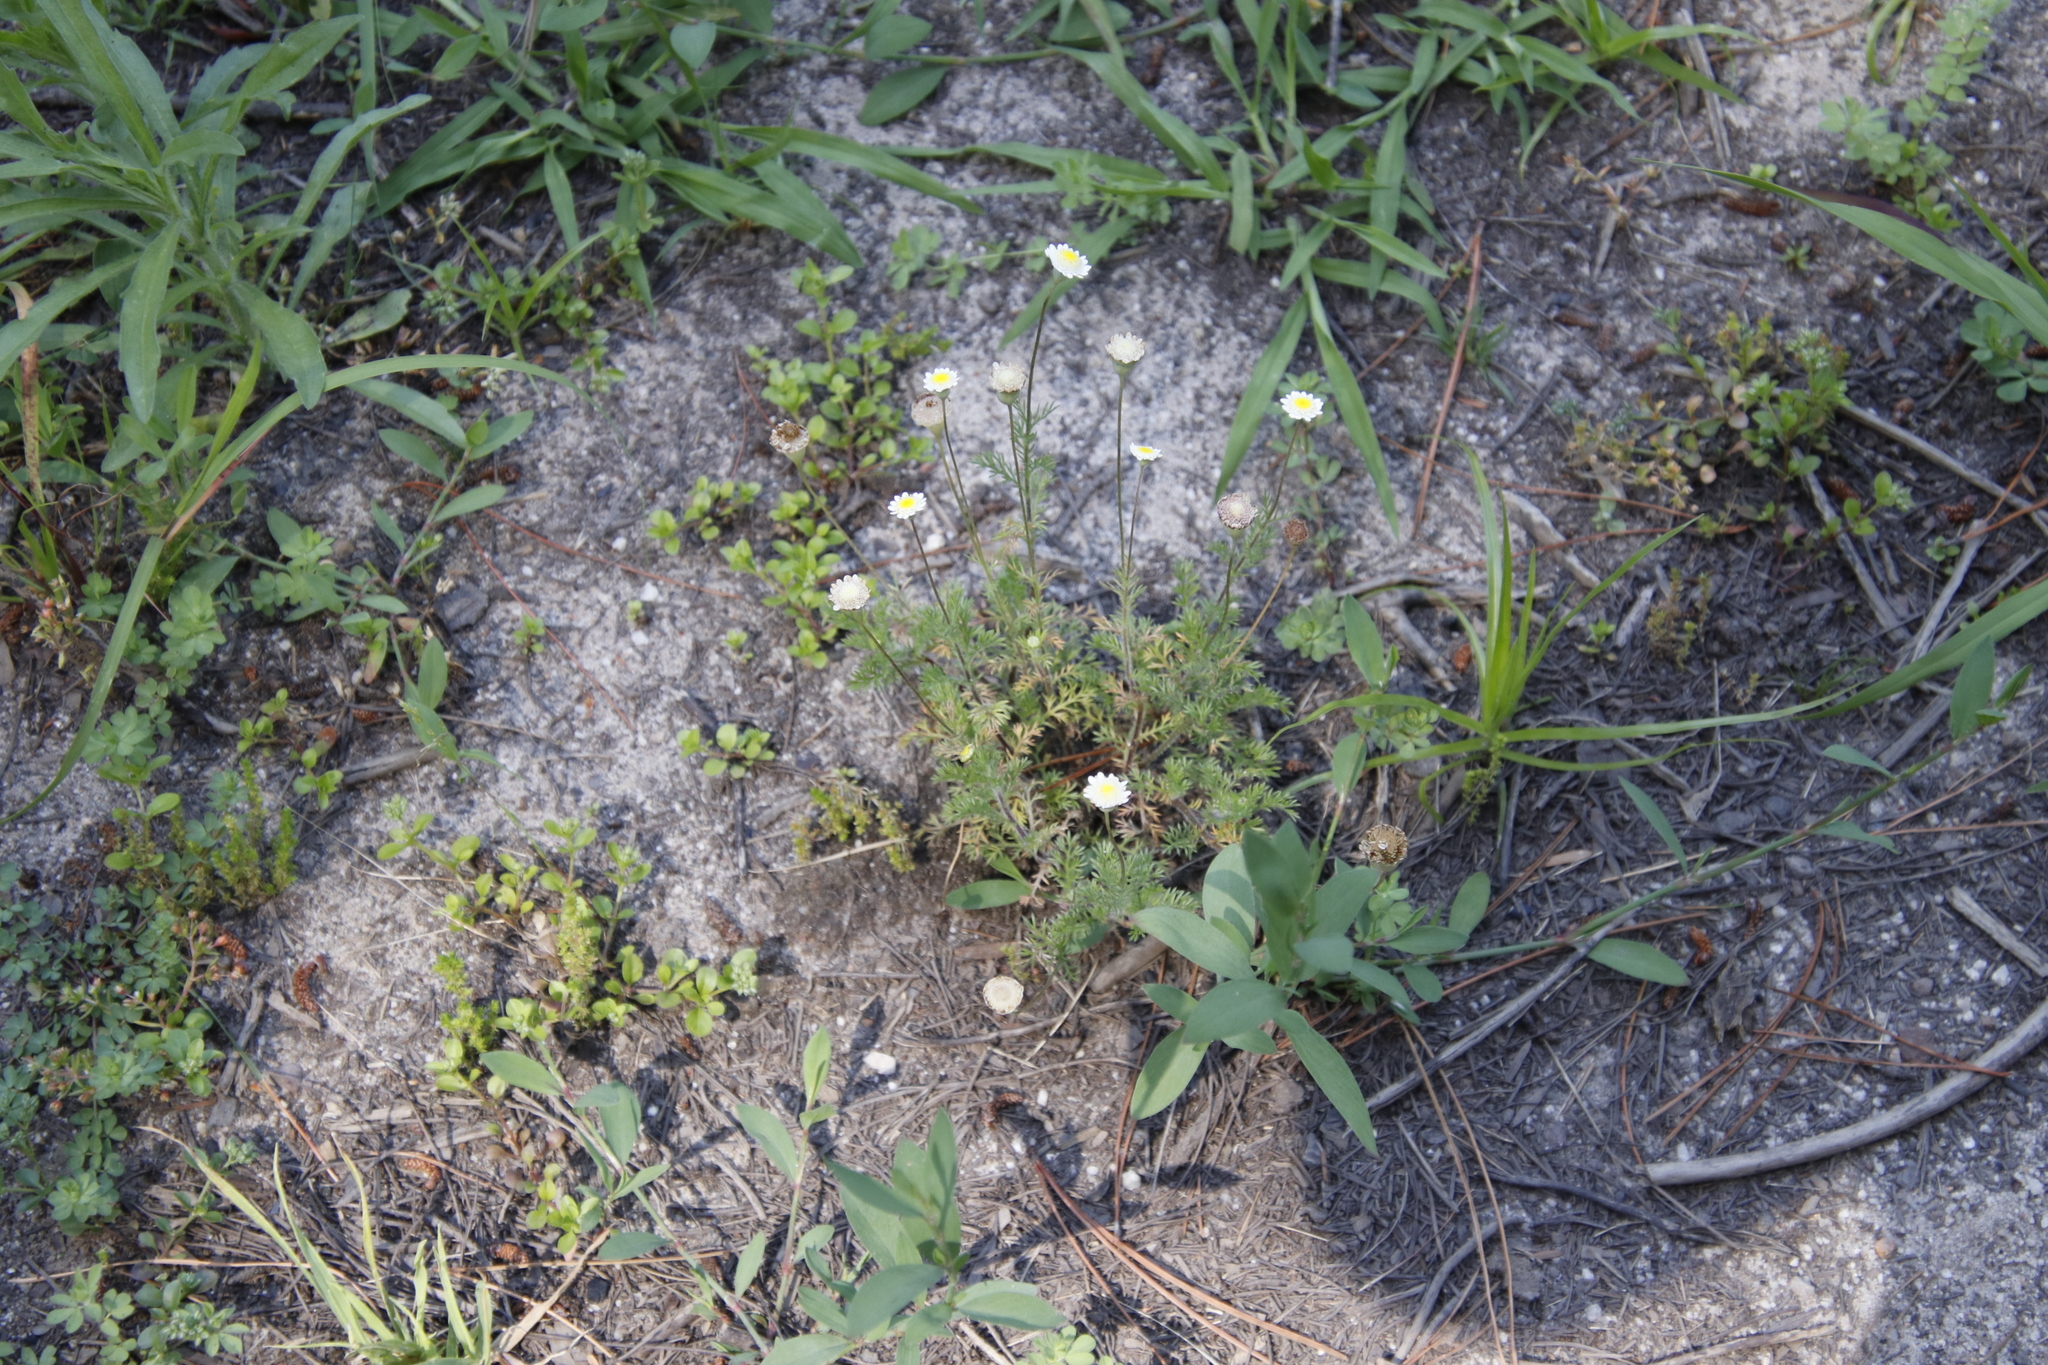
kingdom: Plantae
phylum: Tracheophyta
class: Magnoliopsida
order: Asterales
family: Asteraceae
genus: Cotula
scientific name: Cotula turbinata
